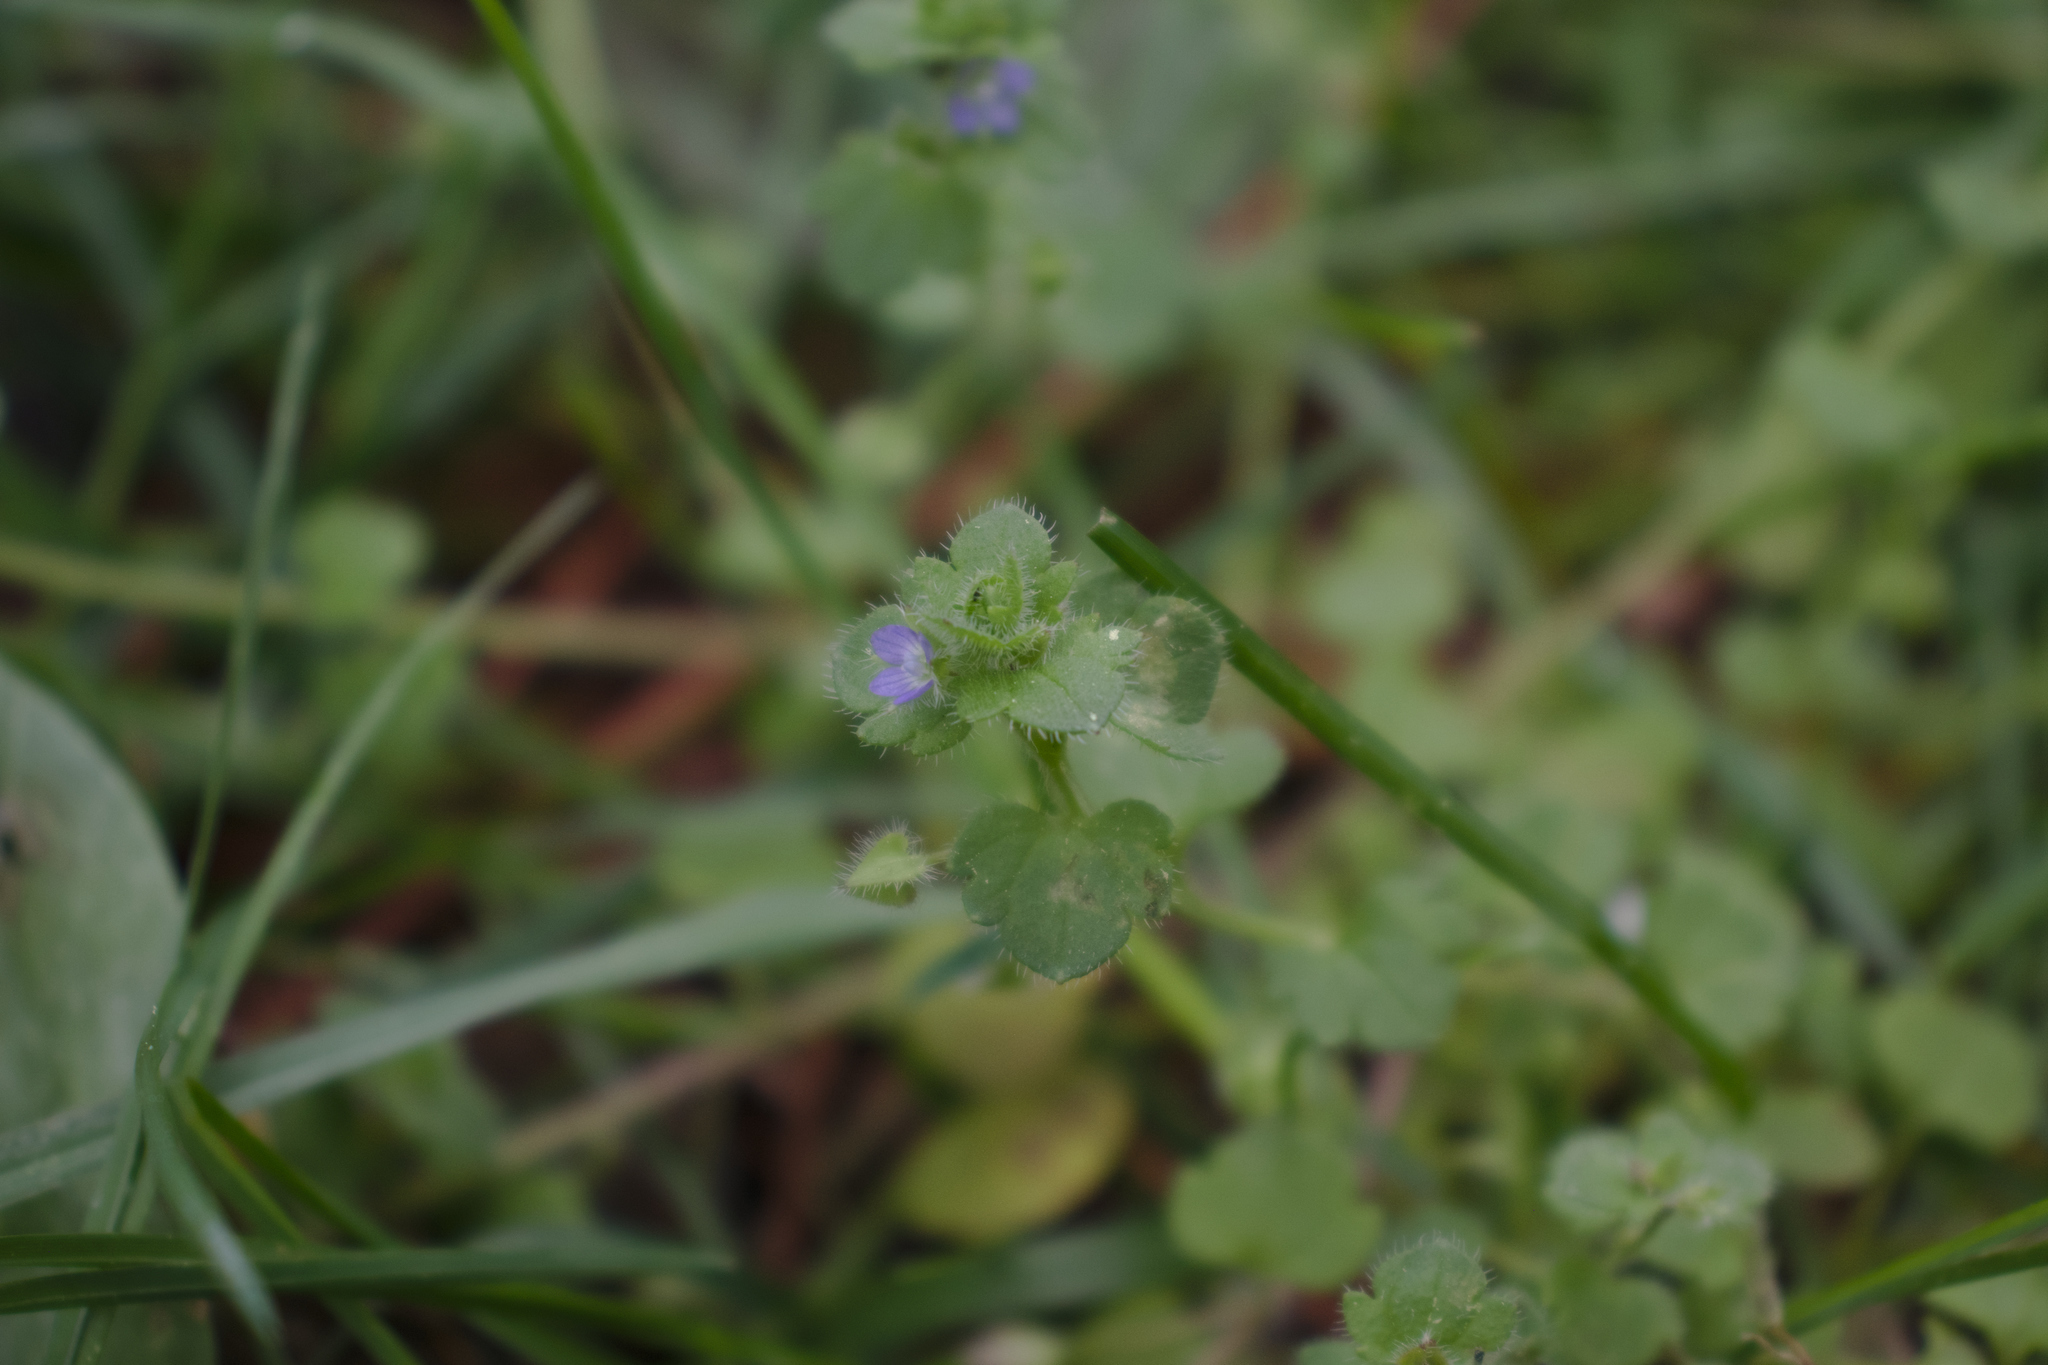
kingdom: Plantae
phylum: Tracheophyta
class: Magnoliopsida
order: Lamiales
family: Plantaginaceae
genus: Veronica
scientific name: Veronica hederifolia
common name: Ivy-leaved speedwell
